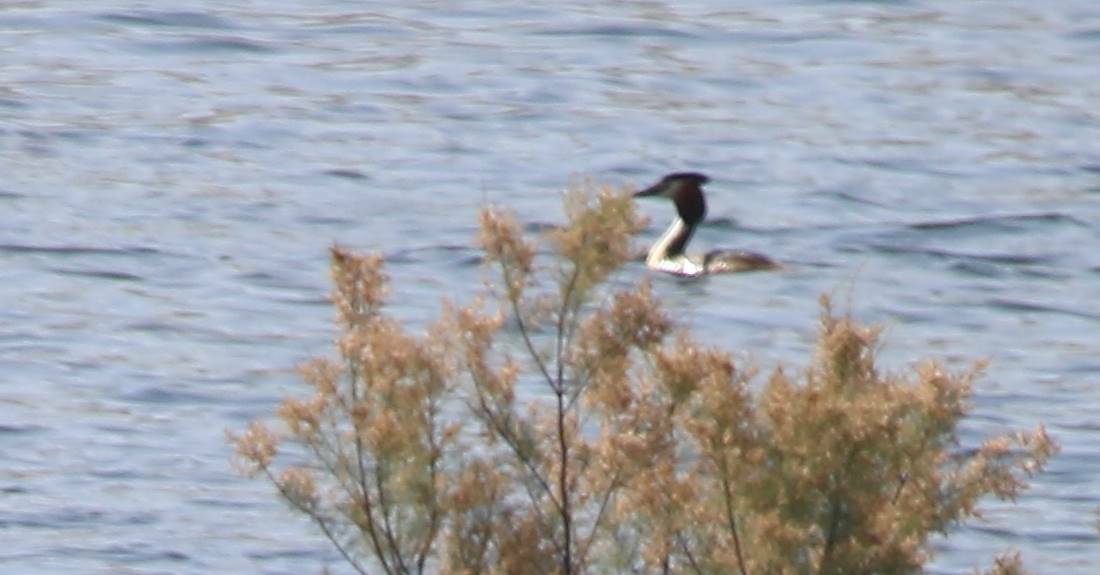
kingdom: Animalia
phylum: Chordata
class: Aves
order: Podicipediformes
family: Podicipedidae
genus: Podiceps
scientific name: Podiceps cristatus
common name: Great crested grebe
